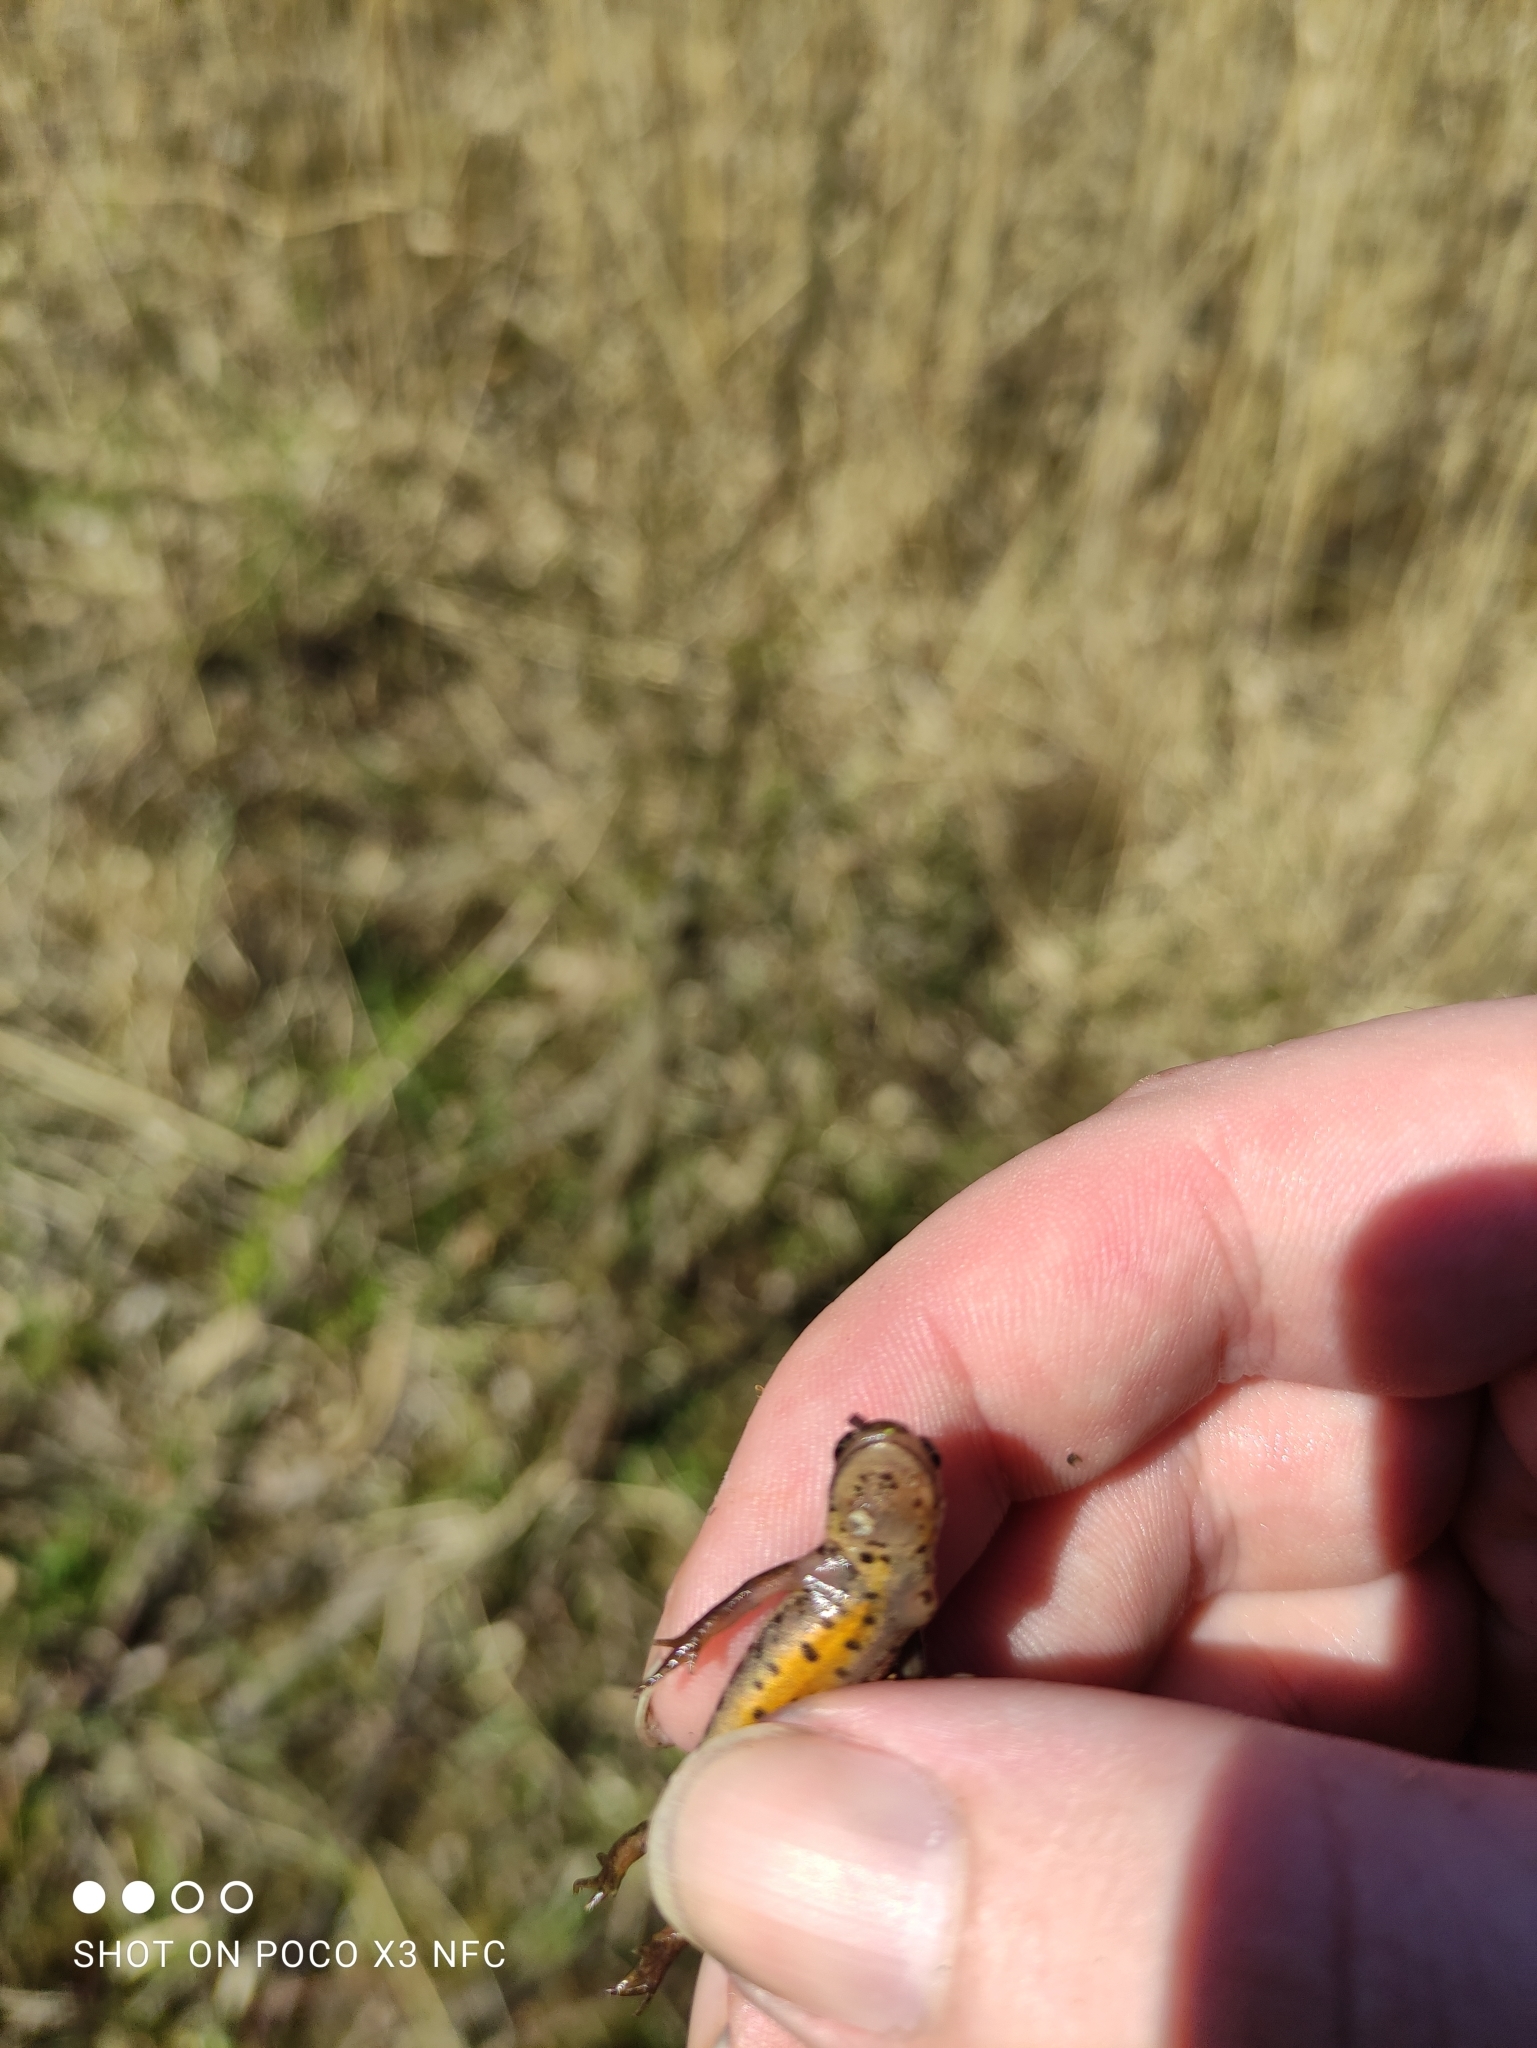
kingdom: Animalia
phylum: Chordata
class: Amphibia
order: Caudata
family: Salamandridae
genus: Lissotriton
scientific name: Lissotriton vulgaris
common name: Smooth newt
